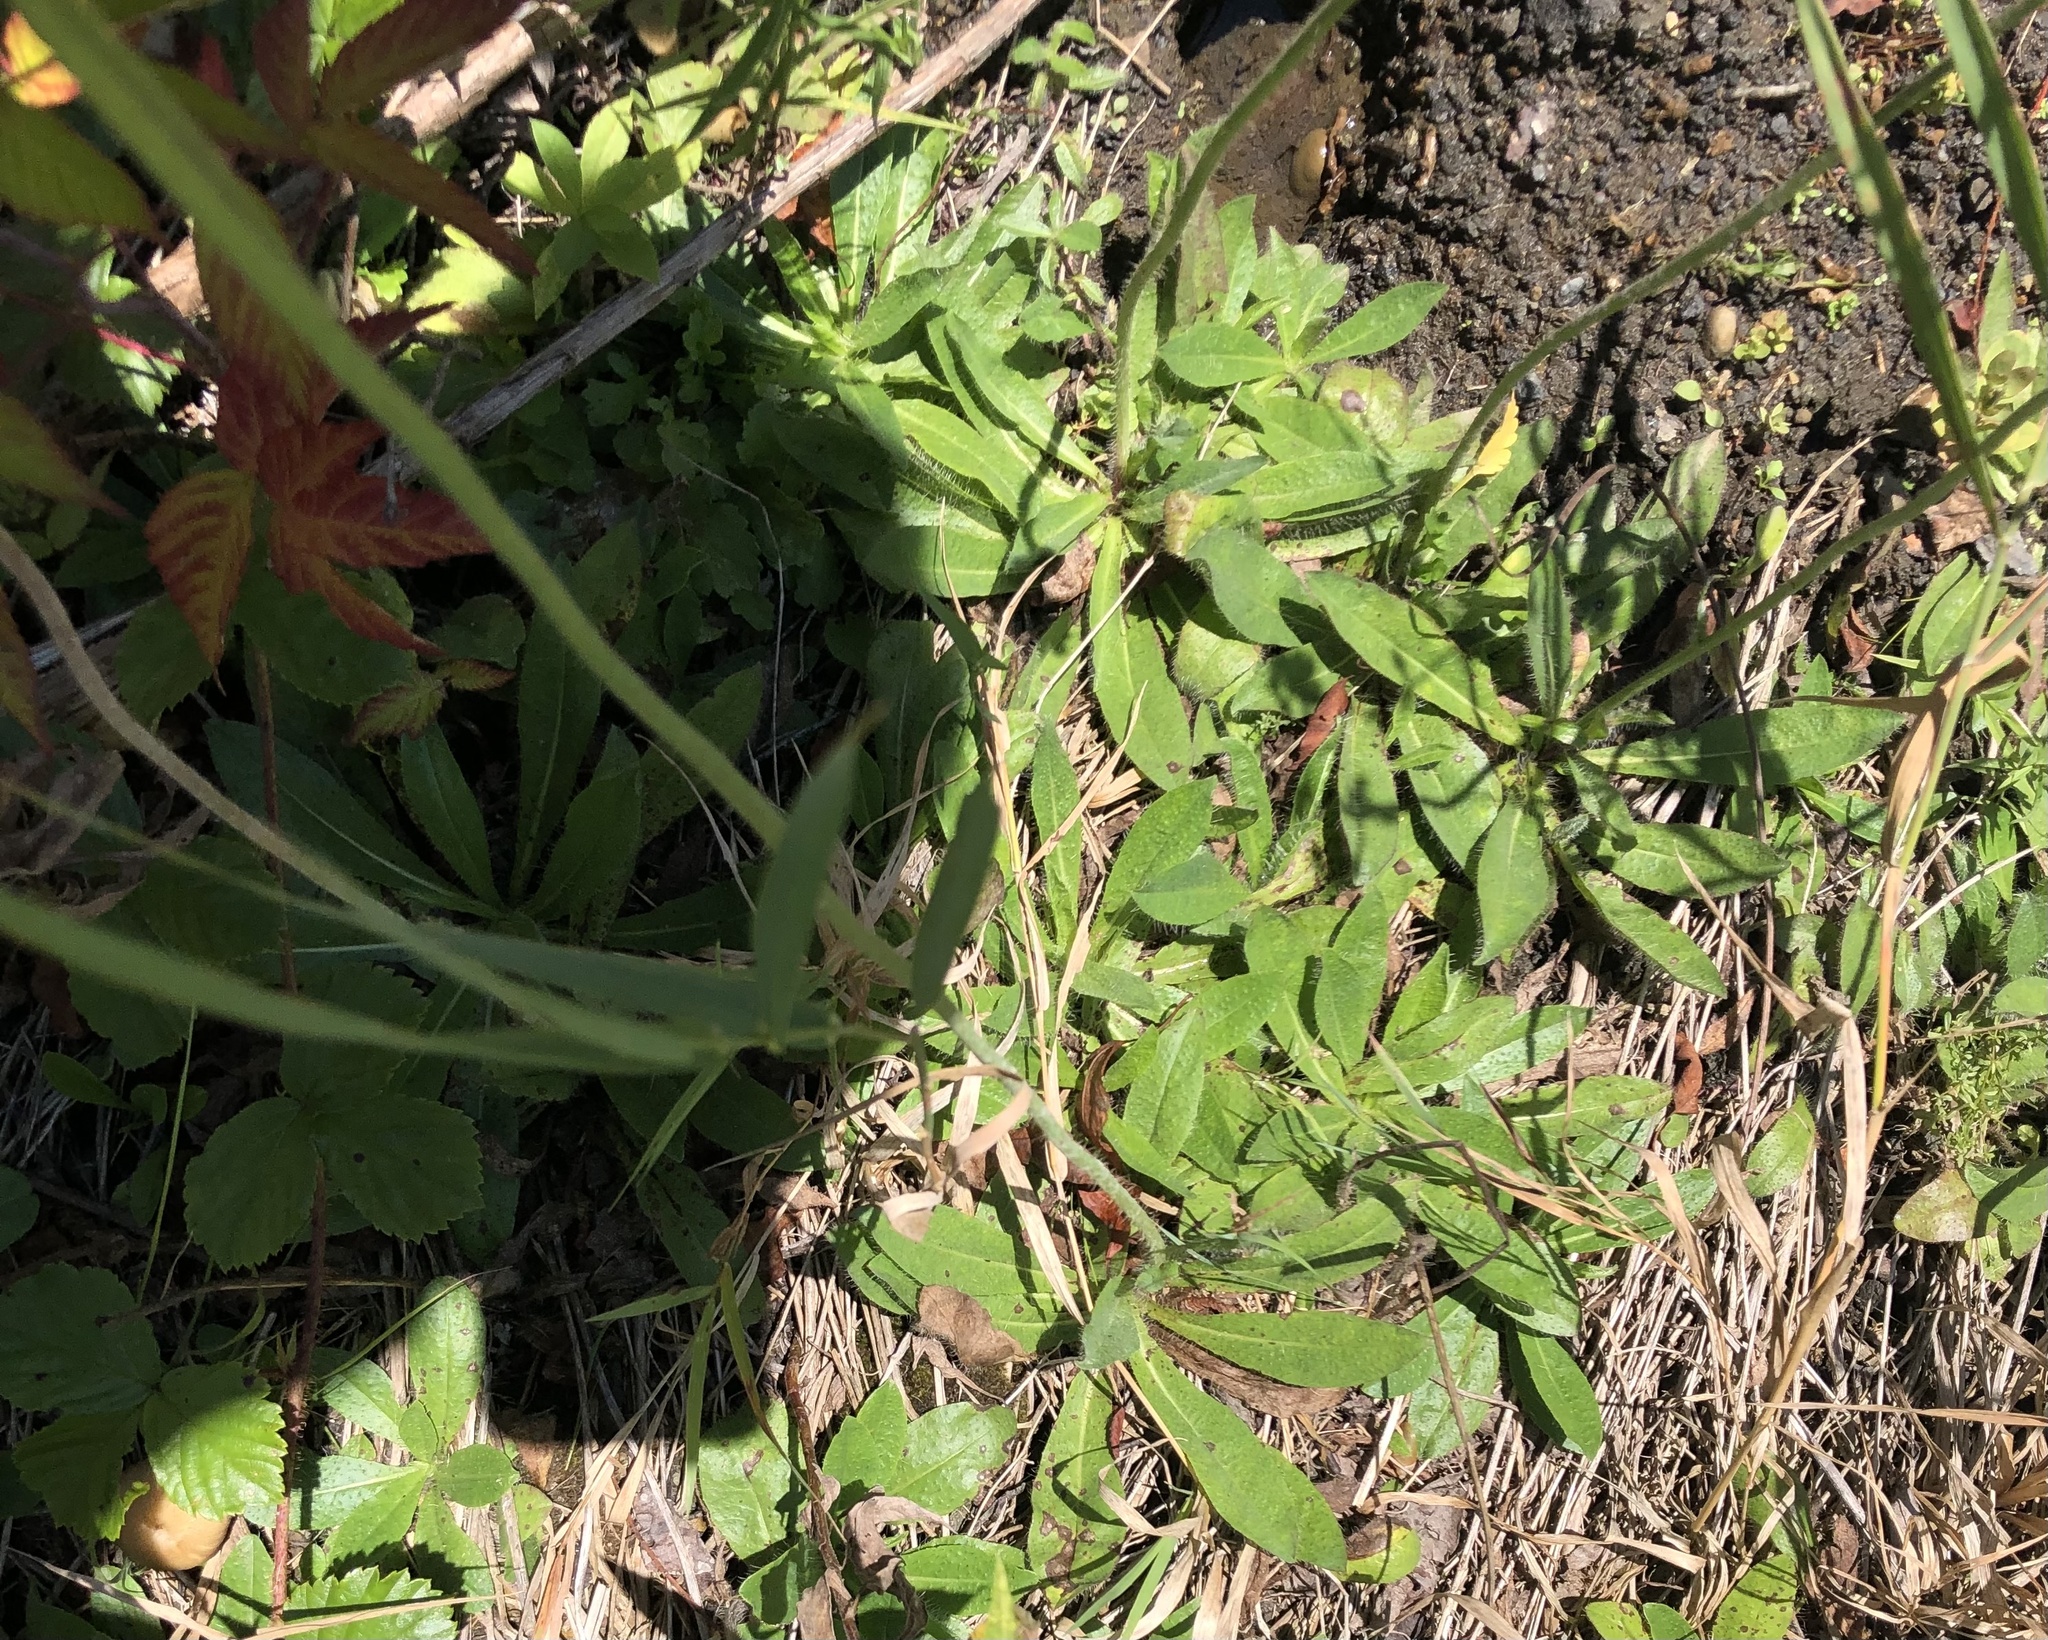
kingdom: Plantae
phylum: Tracheophyta
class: Magnoliopsida
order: Asterales
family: Asteraceae
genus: Pilosella
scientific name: Pilosella aurantiaca
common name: Fox-and-cubs
